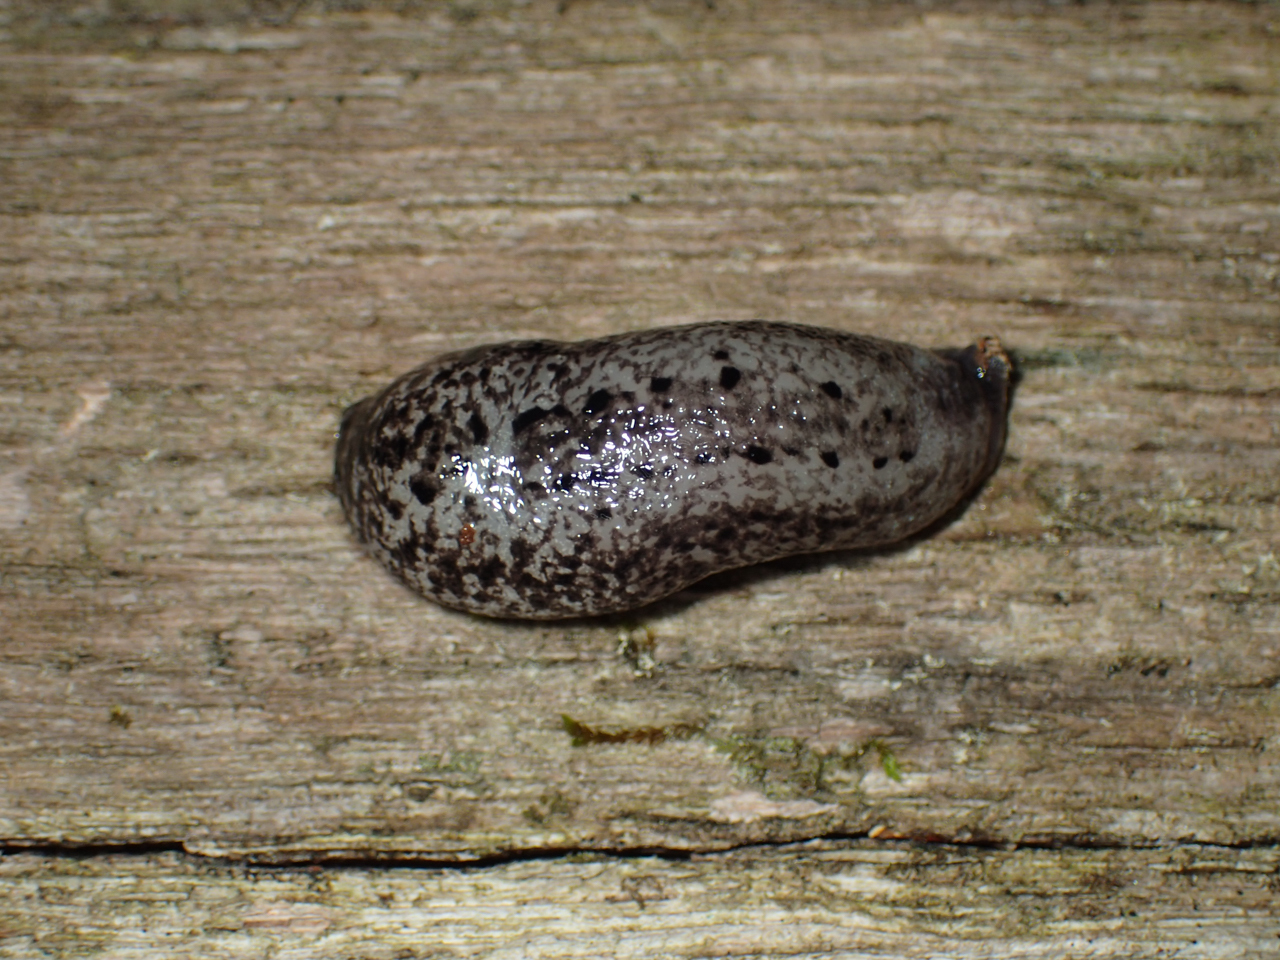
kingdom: Animalia
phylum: Mollusca
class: Gastropoda
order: Stylommatophora
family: Philomycidae
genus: Philomycus
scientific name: Philomycus carolinianus
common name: Carolina mantleslug
